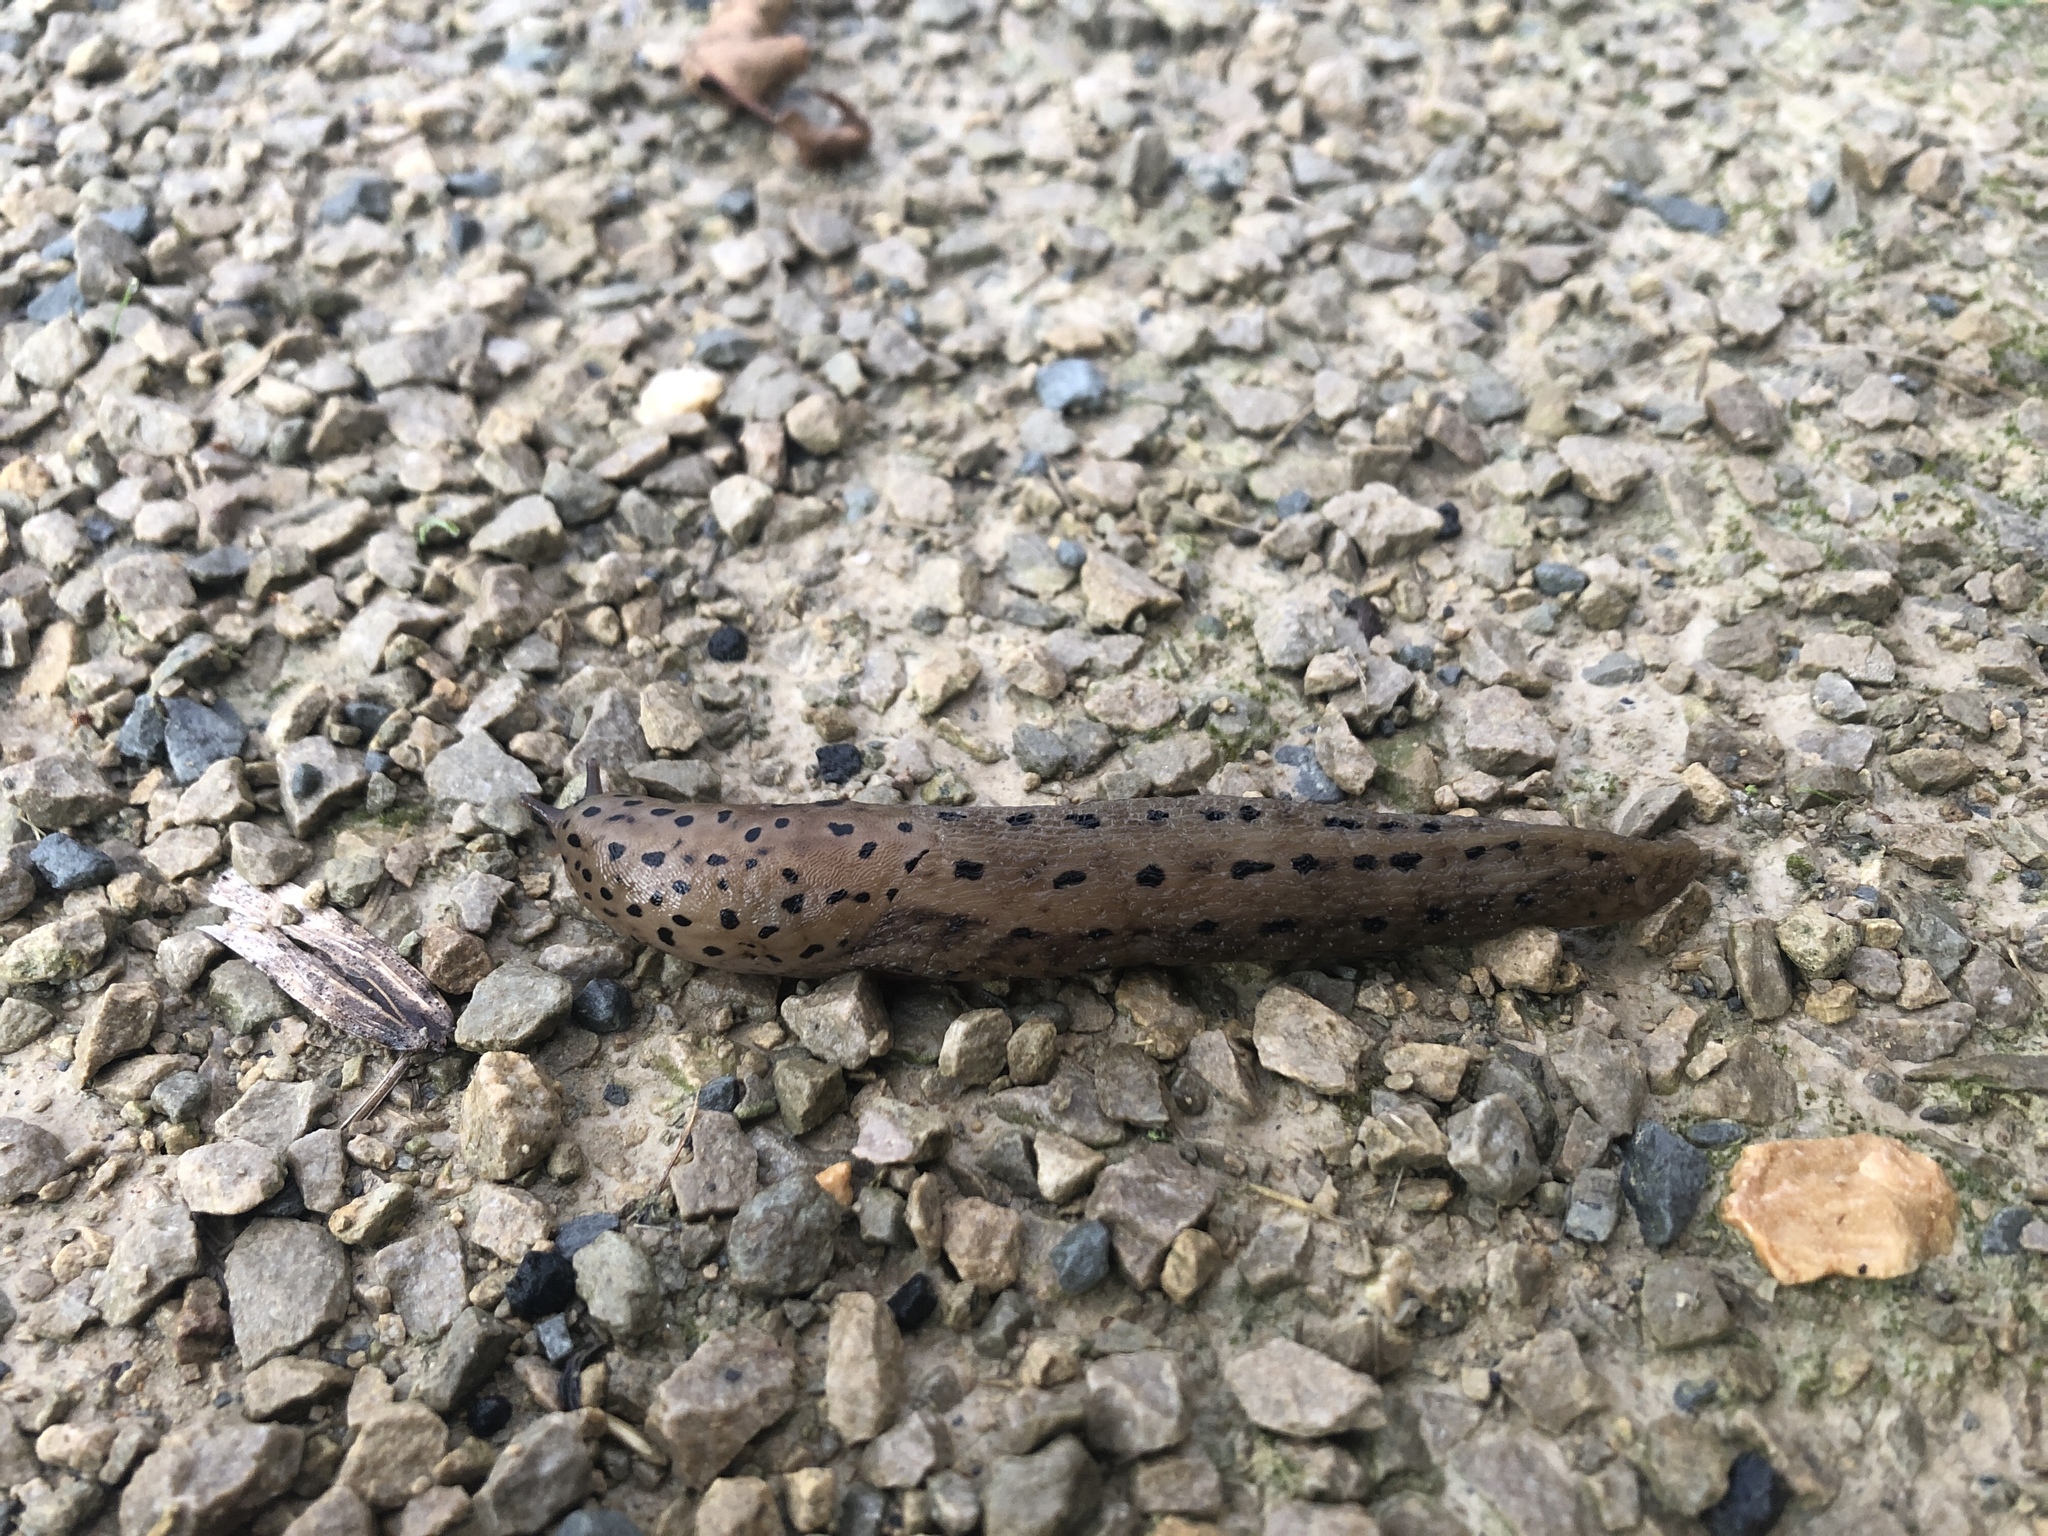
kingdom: Animalia
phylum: Mollusca
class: Gastropoda
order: Stylommatophora
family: Limacidae
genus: Limax
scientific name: Limax maximus
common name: Great grey slug
